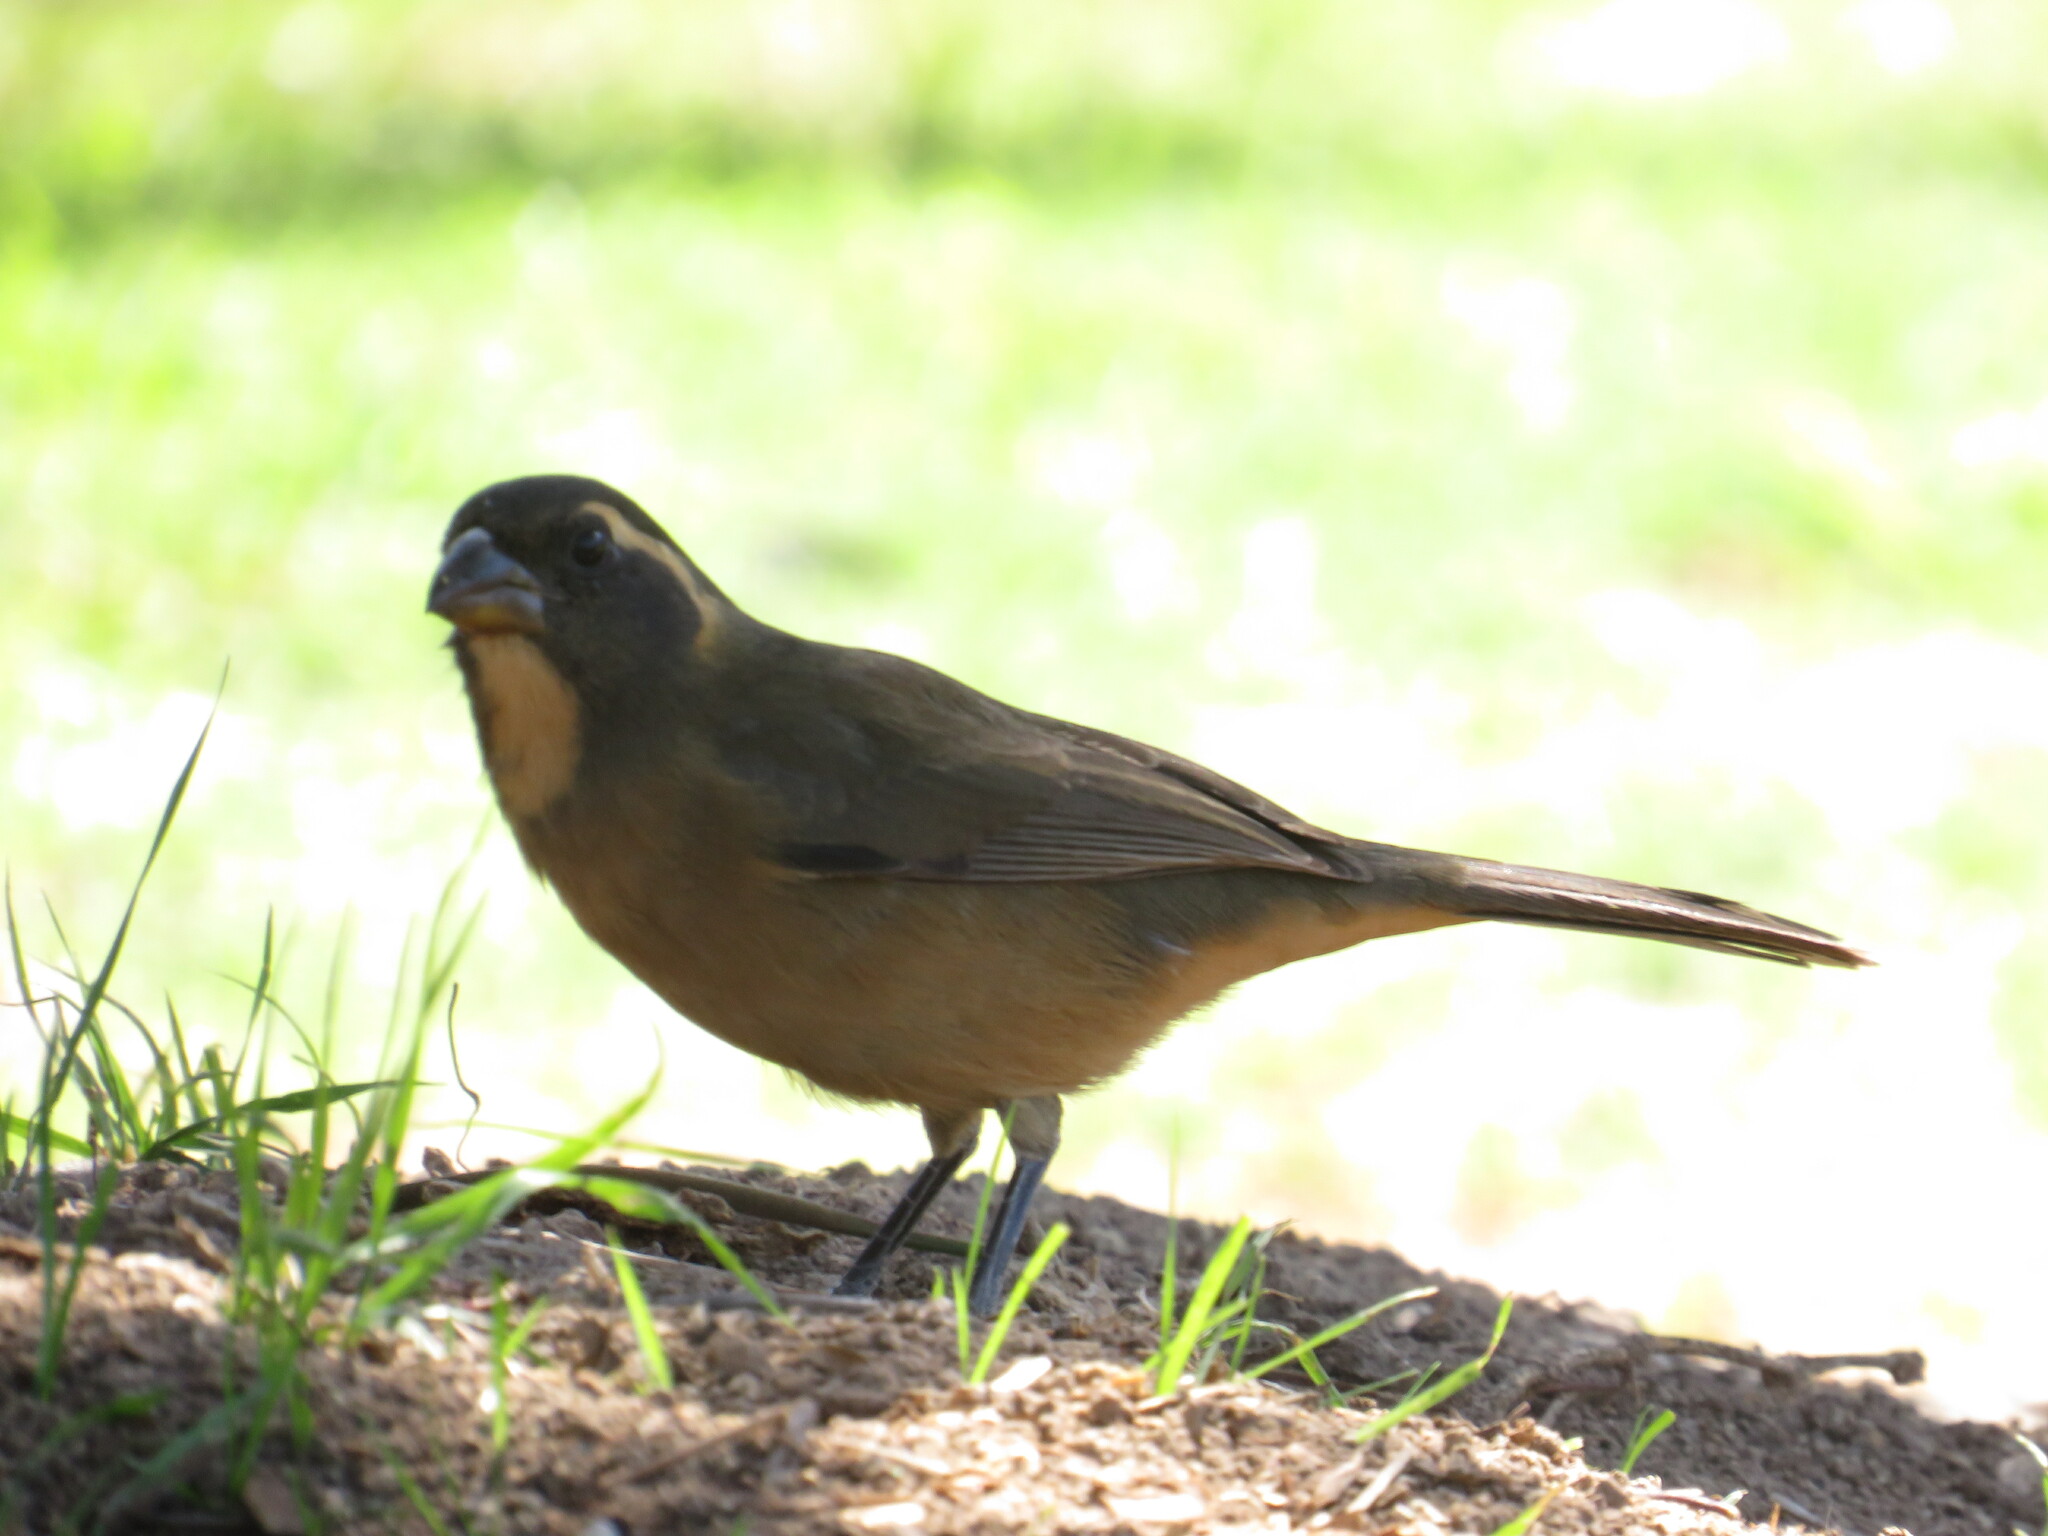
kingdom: Animalia
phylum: Chordata
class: Aves
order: Passeriformes
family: Thraupidae
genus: Saltator
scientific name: Saltator aurantiirostris
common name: Golden-billed saltator
